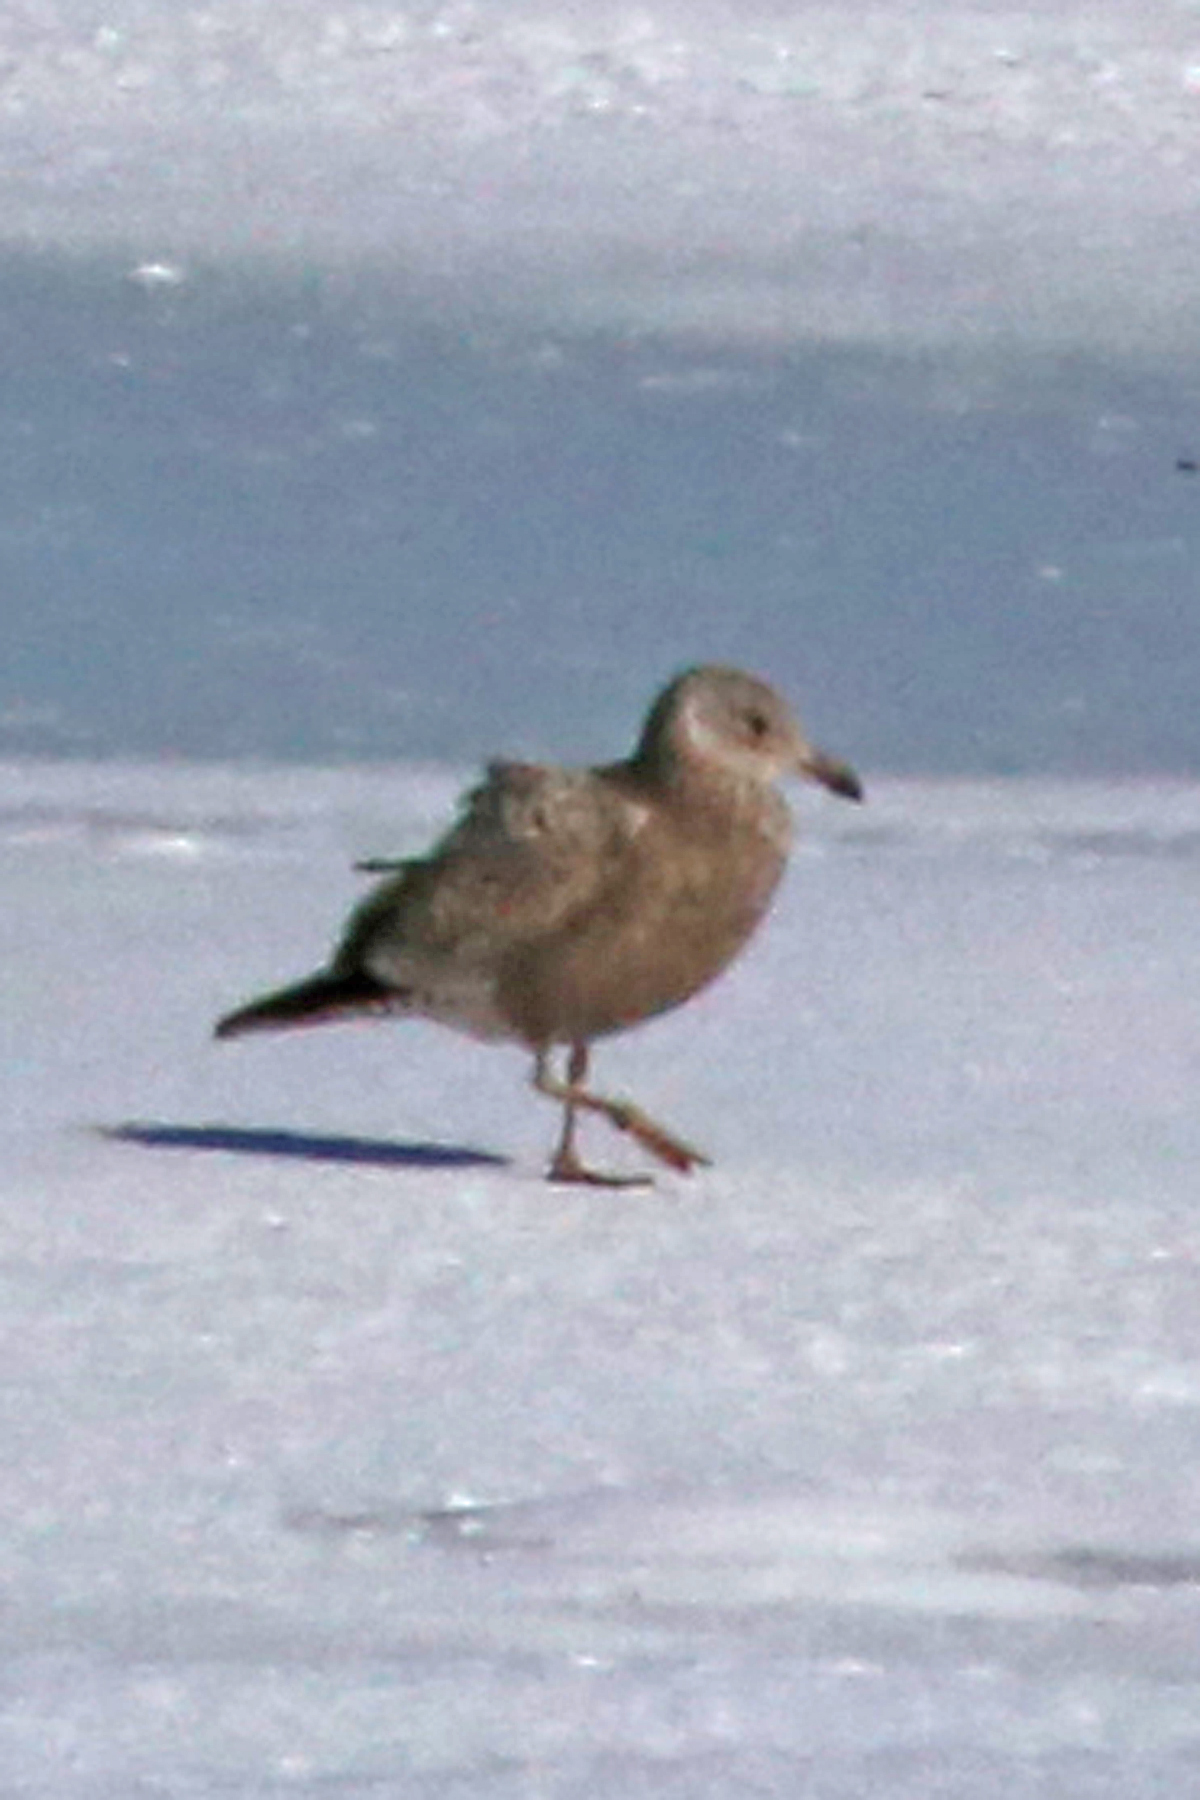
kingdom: Animalia
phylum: Chordata
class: Aves
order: Charadriiformes
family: Laridae
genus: Larus
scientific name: Larus argentatus
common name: Herring gull
